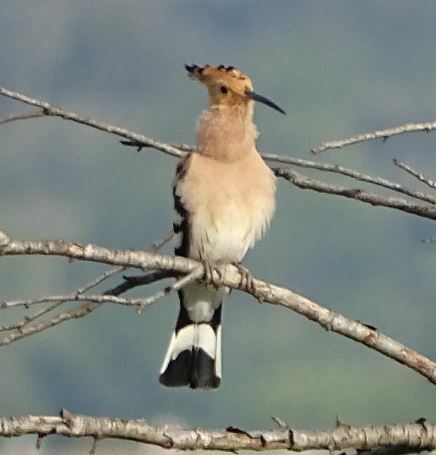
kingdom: Animalia
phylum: Chordata
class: Aves
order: Bucerotiformes
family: Upupidae
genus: Upupa
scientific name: Upupa epops
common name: Eurasian hoopoe
